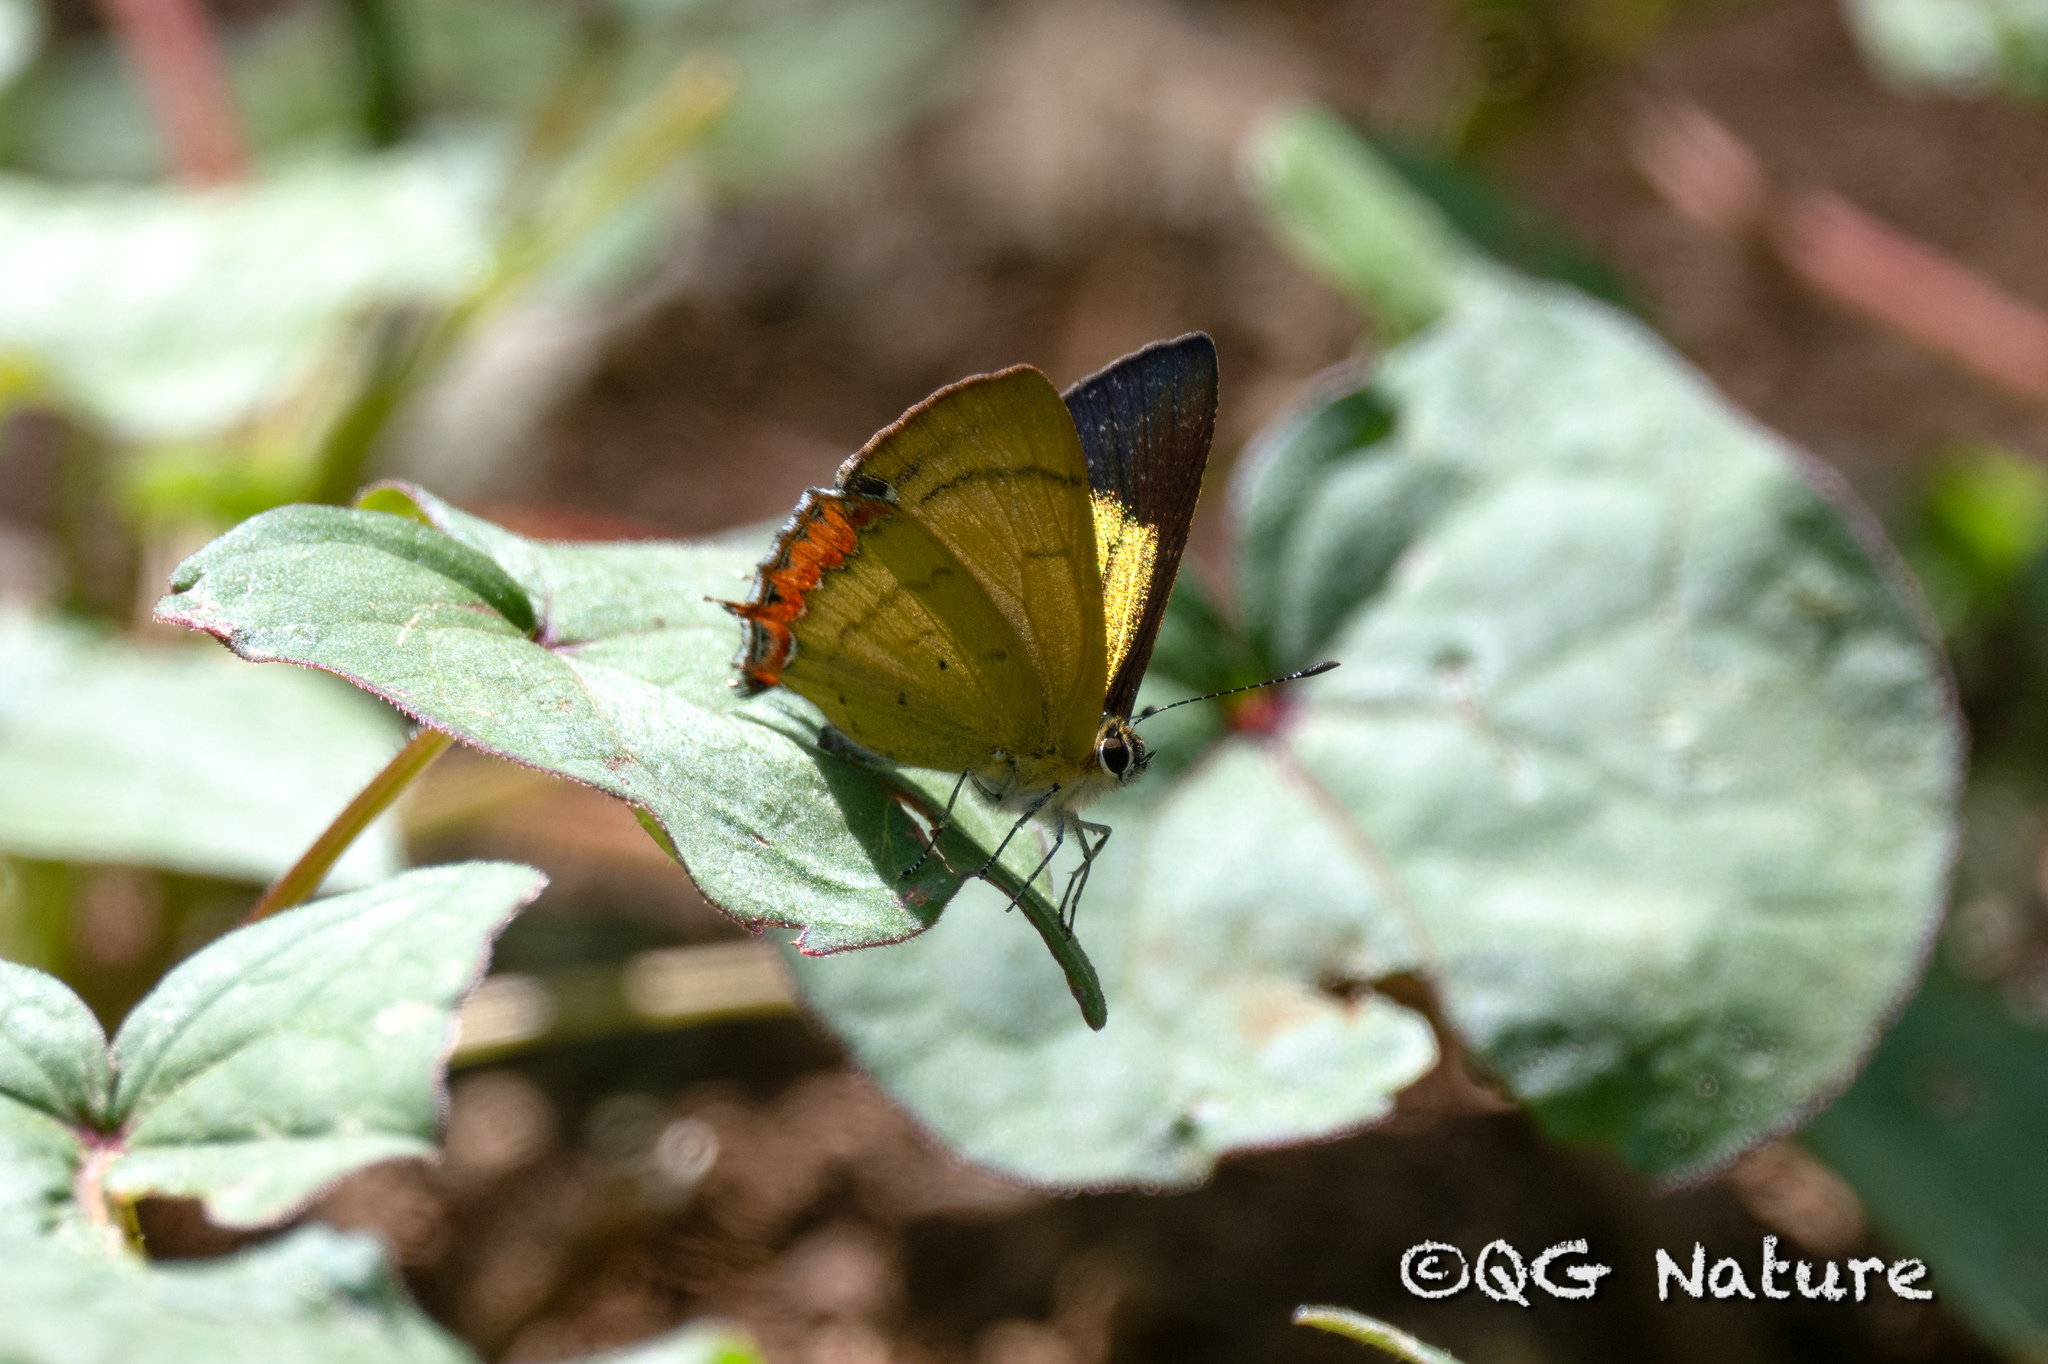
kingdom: Animalia
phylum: Arthropoda
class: Insecta
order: Lepidoptera
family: Lycaenidae
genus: Heliophorus
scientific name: Heliophorus brahma
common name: Golden sapphire
